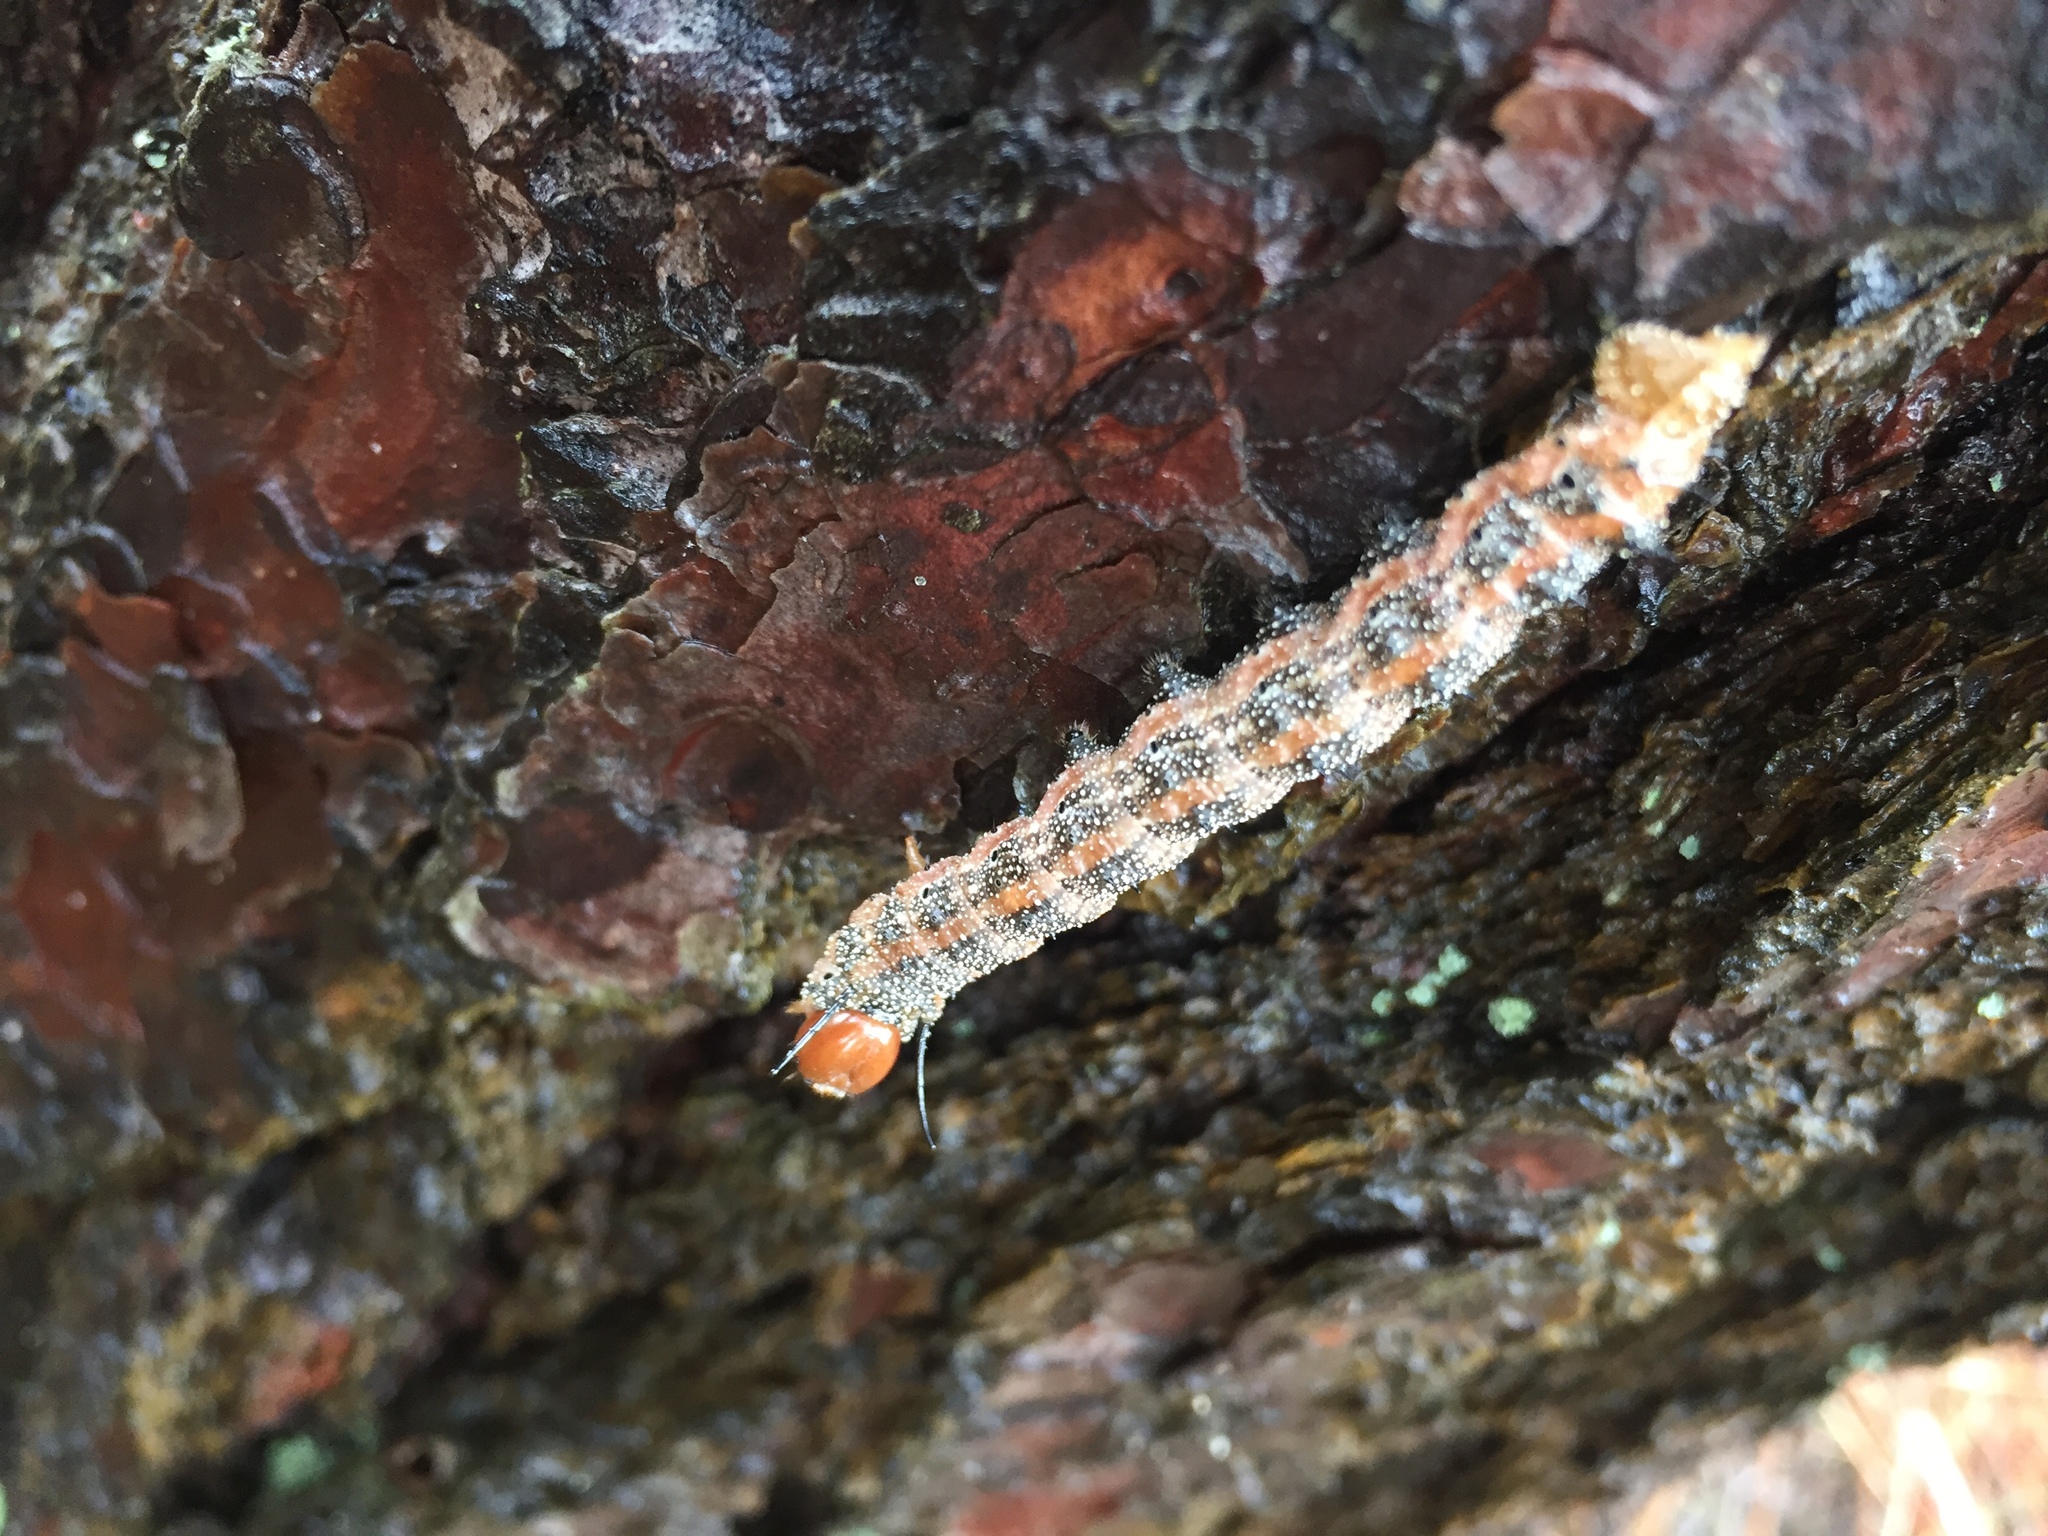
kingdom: Animalia
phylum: Arthropoda
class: Insecta
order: Lepidoptera
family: Saturniidae
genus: Anisota
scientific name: Anisota virginiensis
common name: Pink striped oakworm moth
